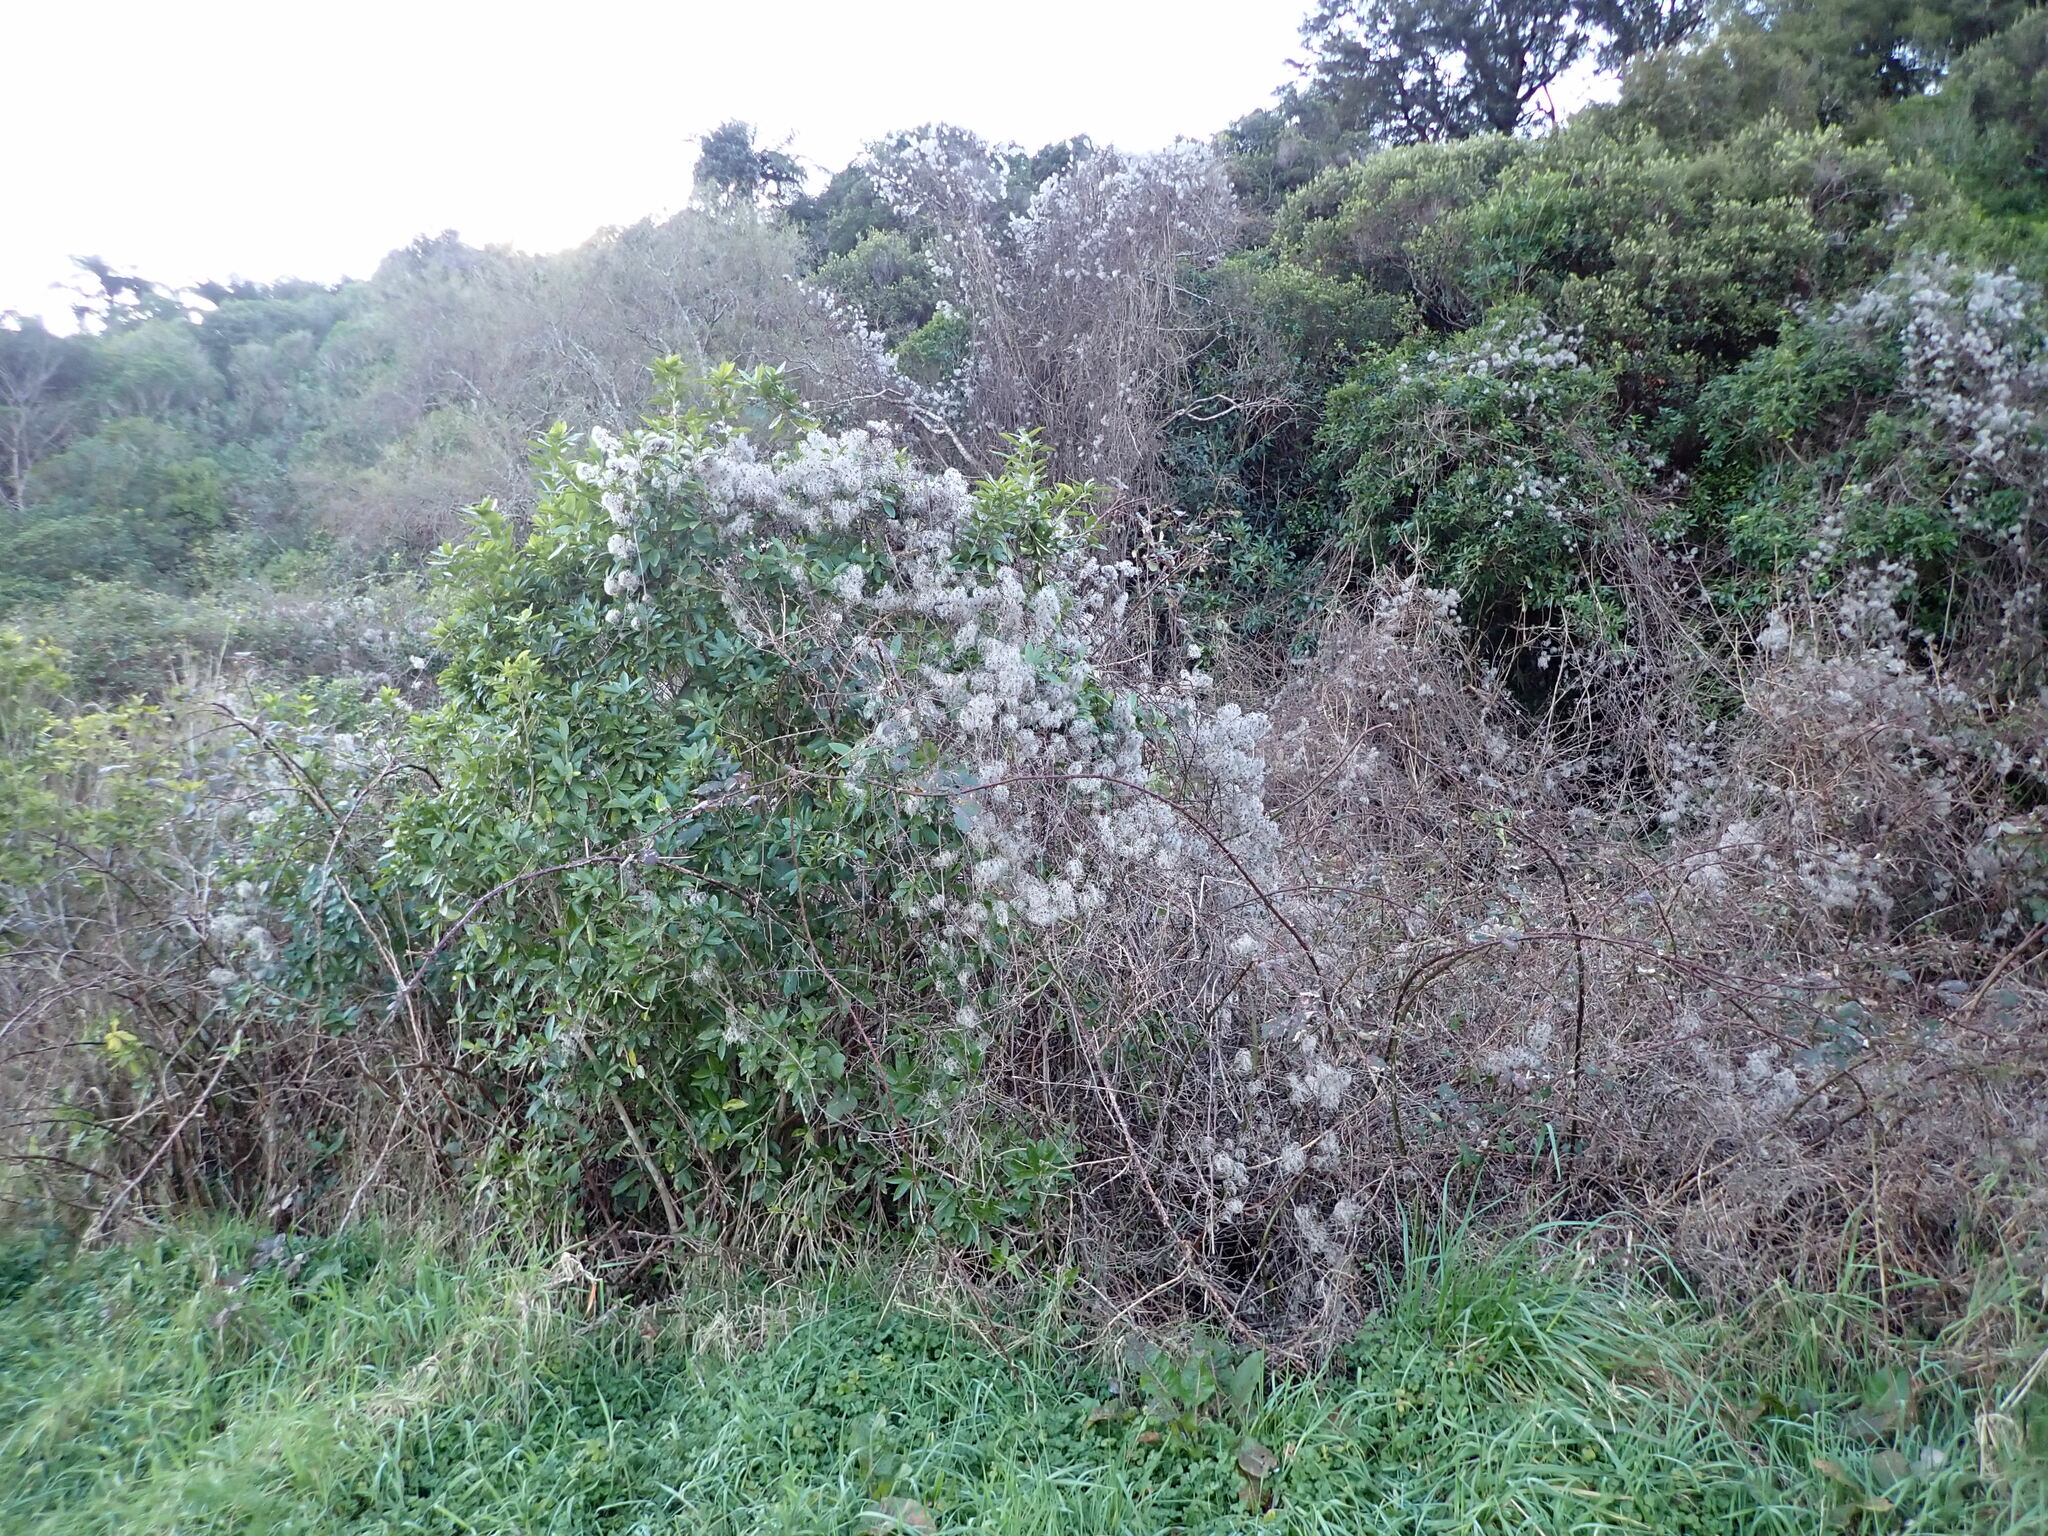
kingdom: Plantae
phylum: Tracheophyta
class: Magnoliopsida
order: Ranunculales
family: Ranunculaceae
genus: Clematis
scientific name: Clematis vitalba
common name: Evergreen clematis
